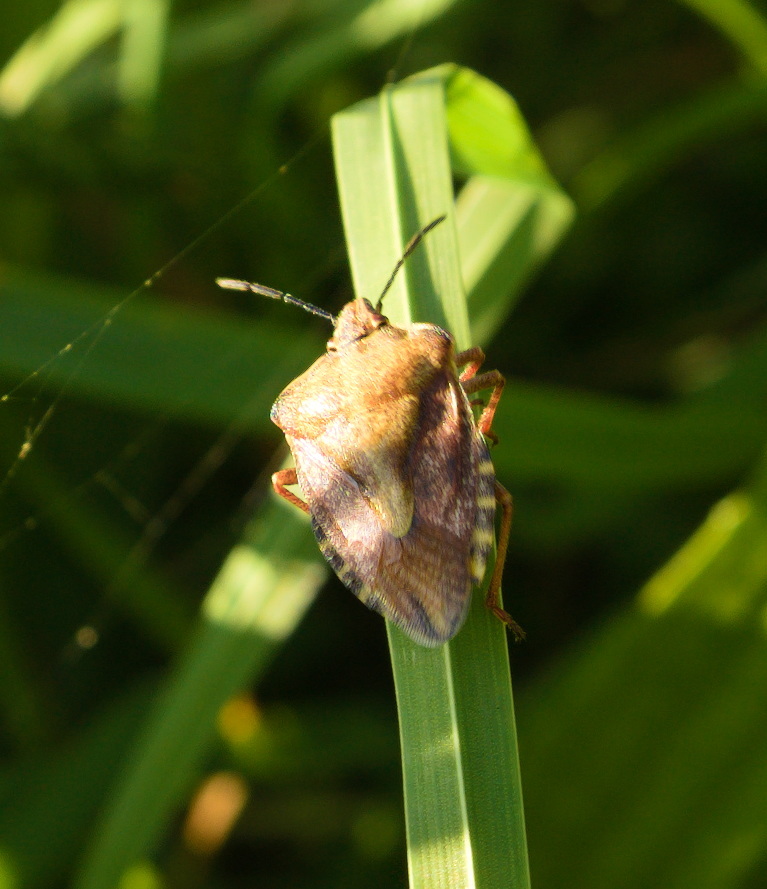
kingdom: Animalia
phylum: Arthropoda
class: Insecta
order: Hemiptera
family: Pentatomidae
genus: Carpocoris
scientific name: Carpocoris purpureipennis
